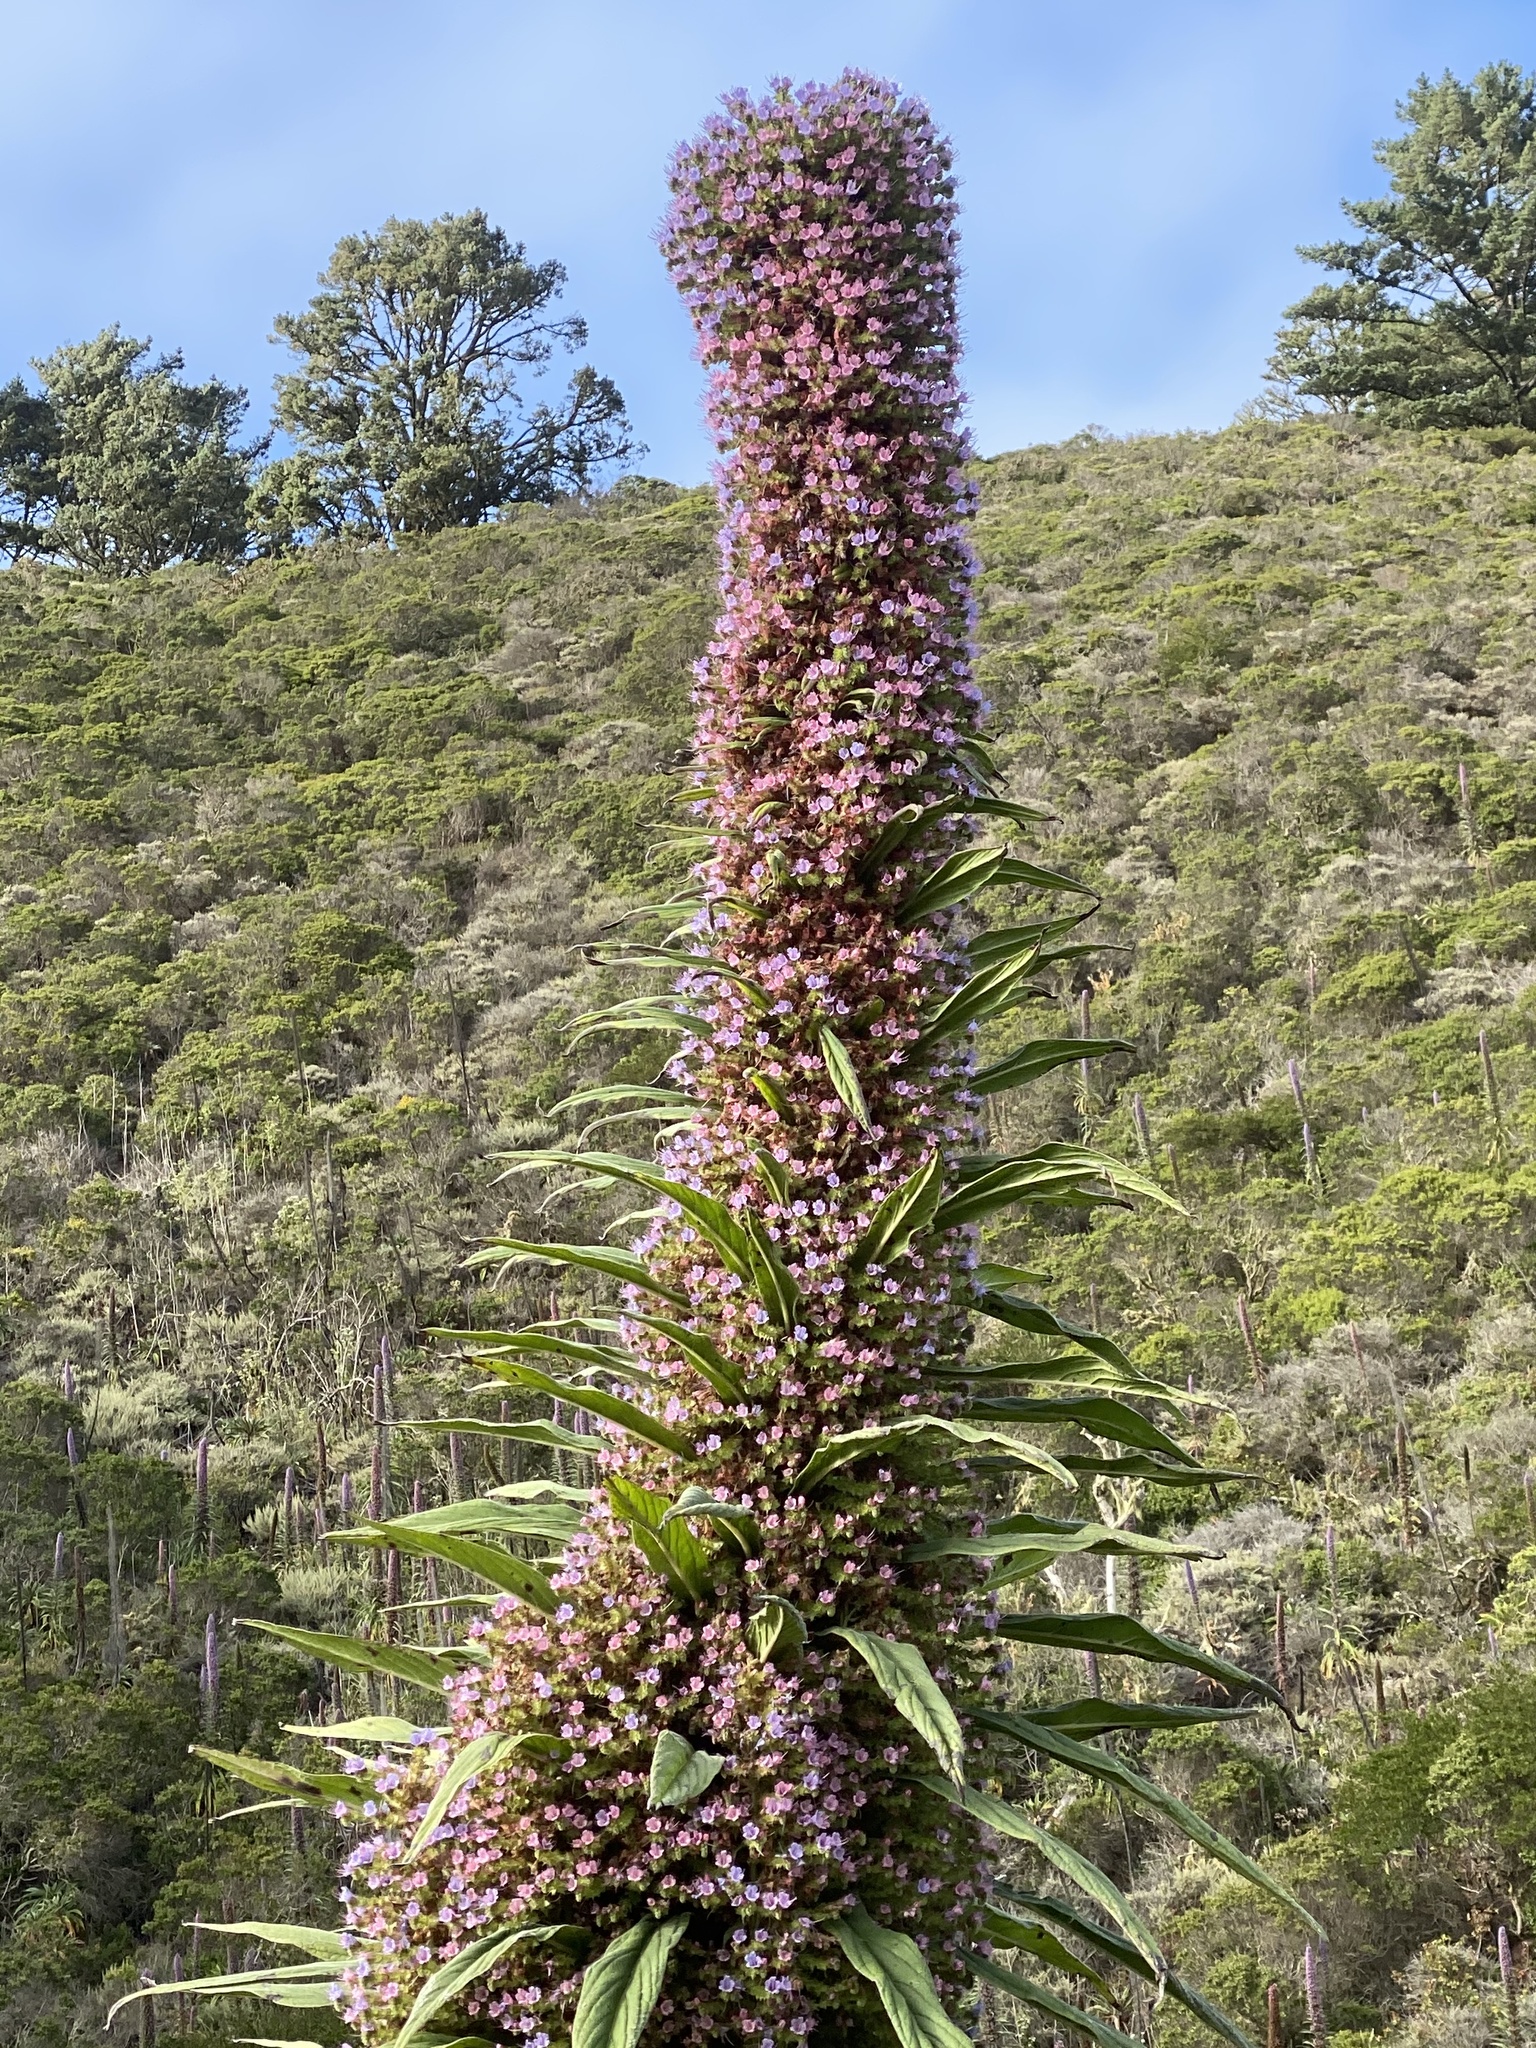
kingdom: Plantae
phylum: Tracheophyta
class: Magnoliopsida
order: Boraginales
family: Boraginaceae
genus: Echium
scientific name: Echium pininana
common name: Giant viper's-bugloss
